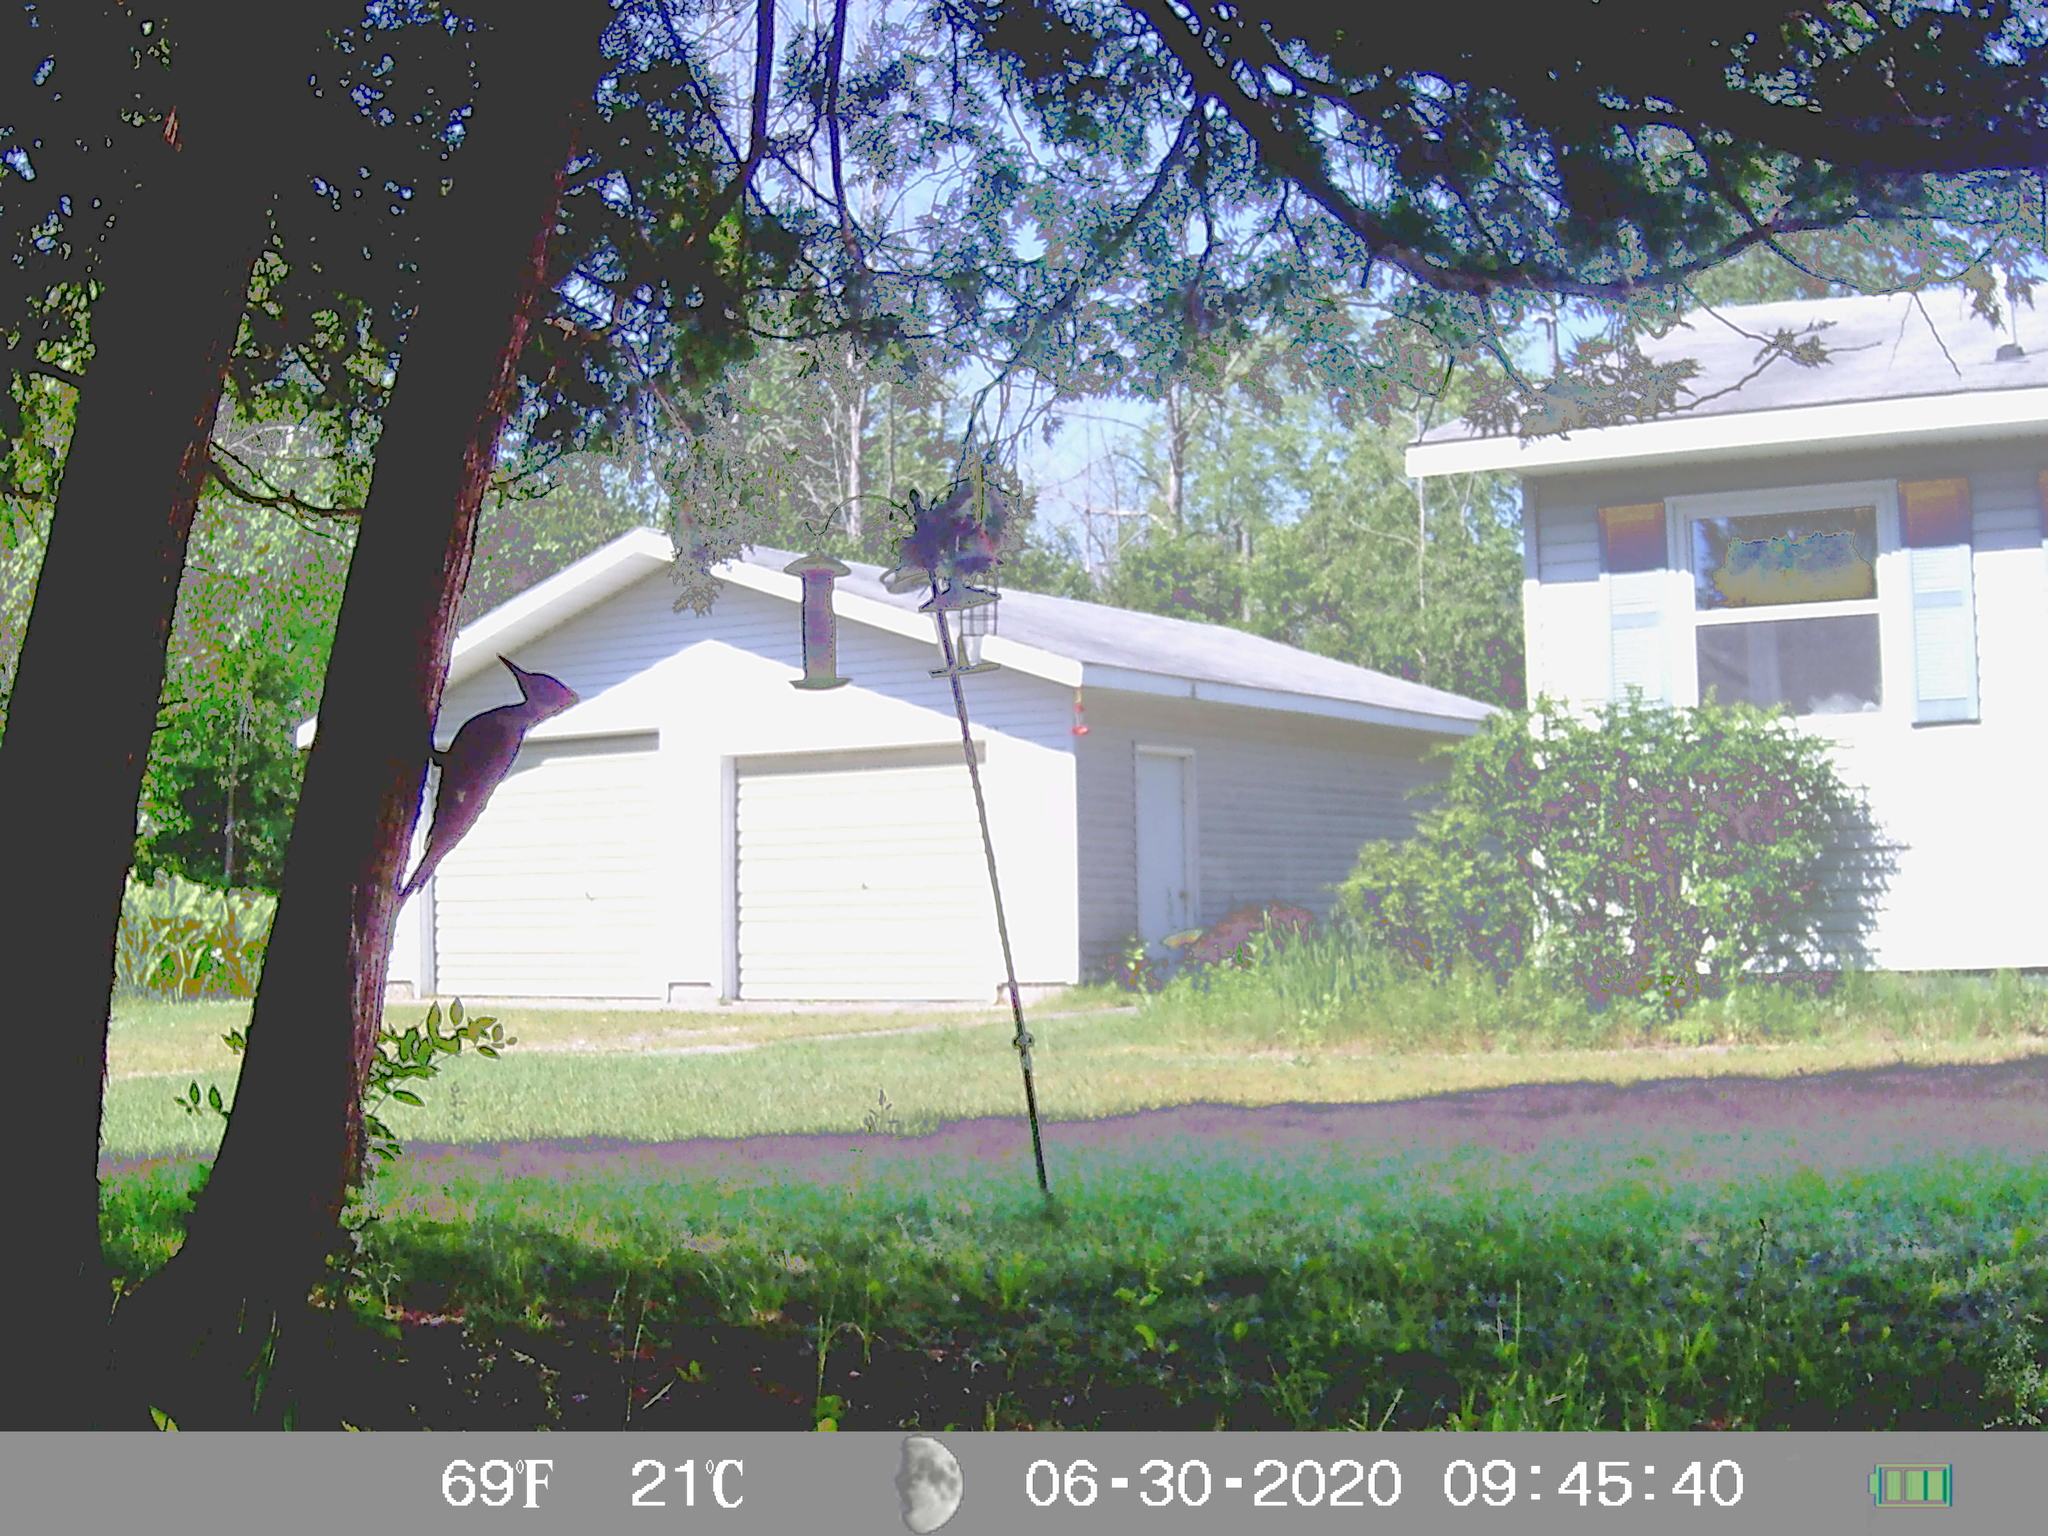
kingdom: Animalia
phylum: Chordata
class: Aves
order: Piciformes
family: Picidae
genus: Dryocopus
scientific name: Dryocopus pileatus
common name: Pileated woodpecker
